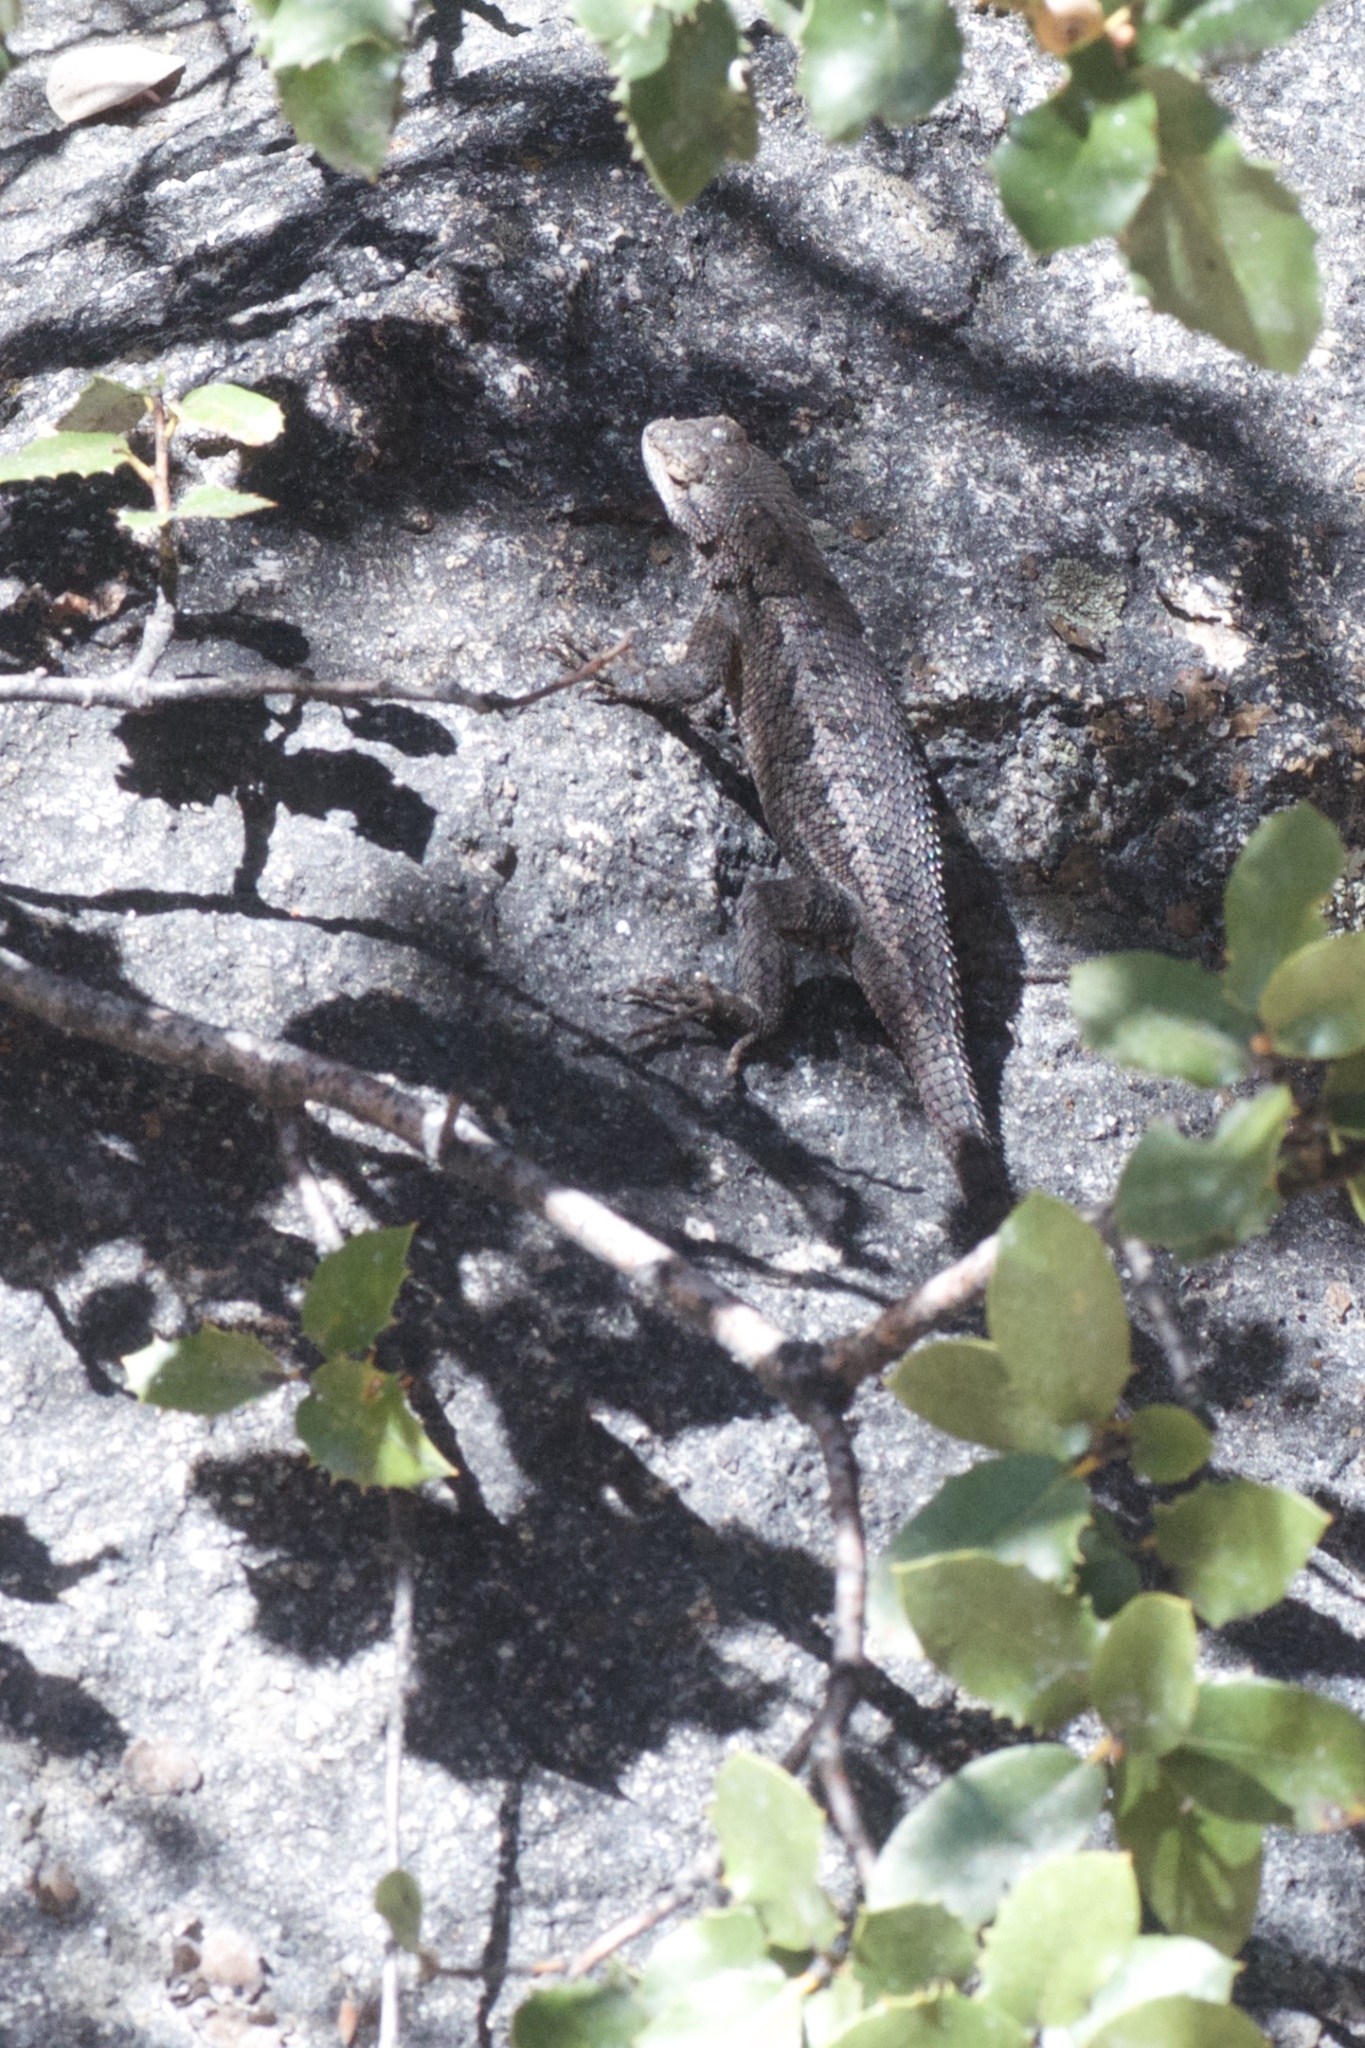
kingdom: Animalia
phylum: Chordata
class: Squamata
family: Phrynosomatidae
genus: Sceloporus
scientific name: Sceloporus occidentalis
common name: Western fence lizard
